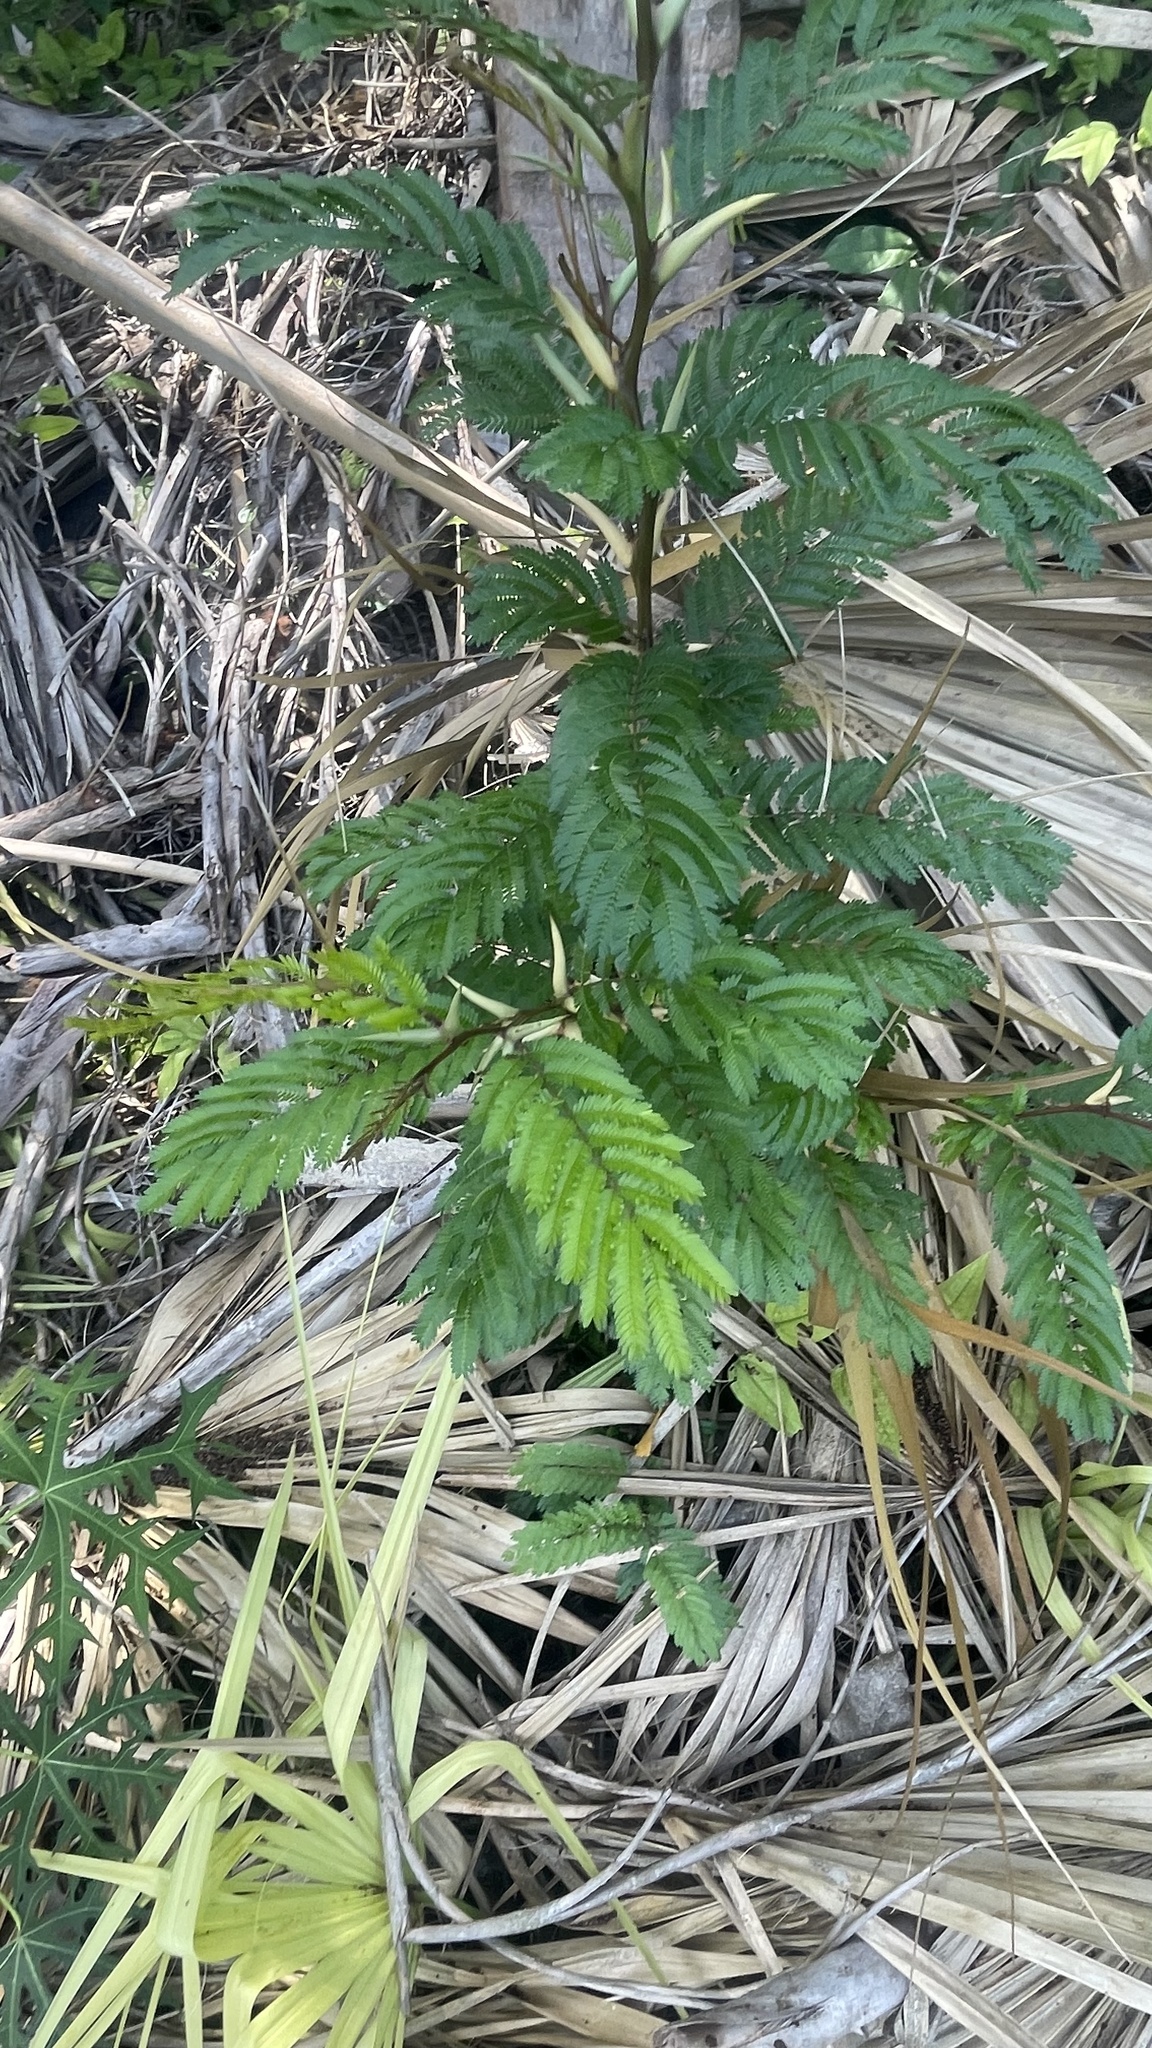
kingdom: Plantae
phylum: Tracheophyta
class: Magnoliopsida
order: Fabales
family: Fabaceae
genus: Vachellia
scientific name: Vachellia cornigera
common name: Bullhorn wattle
